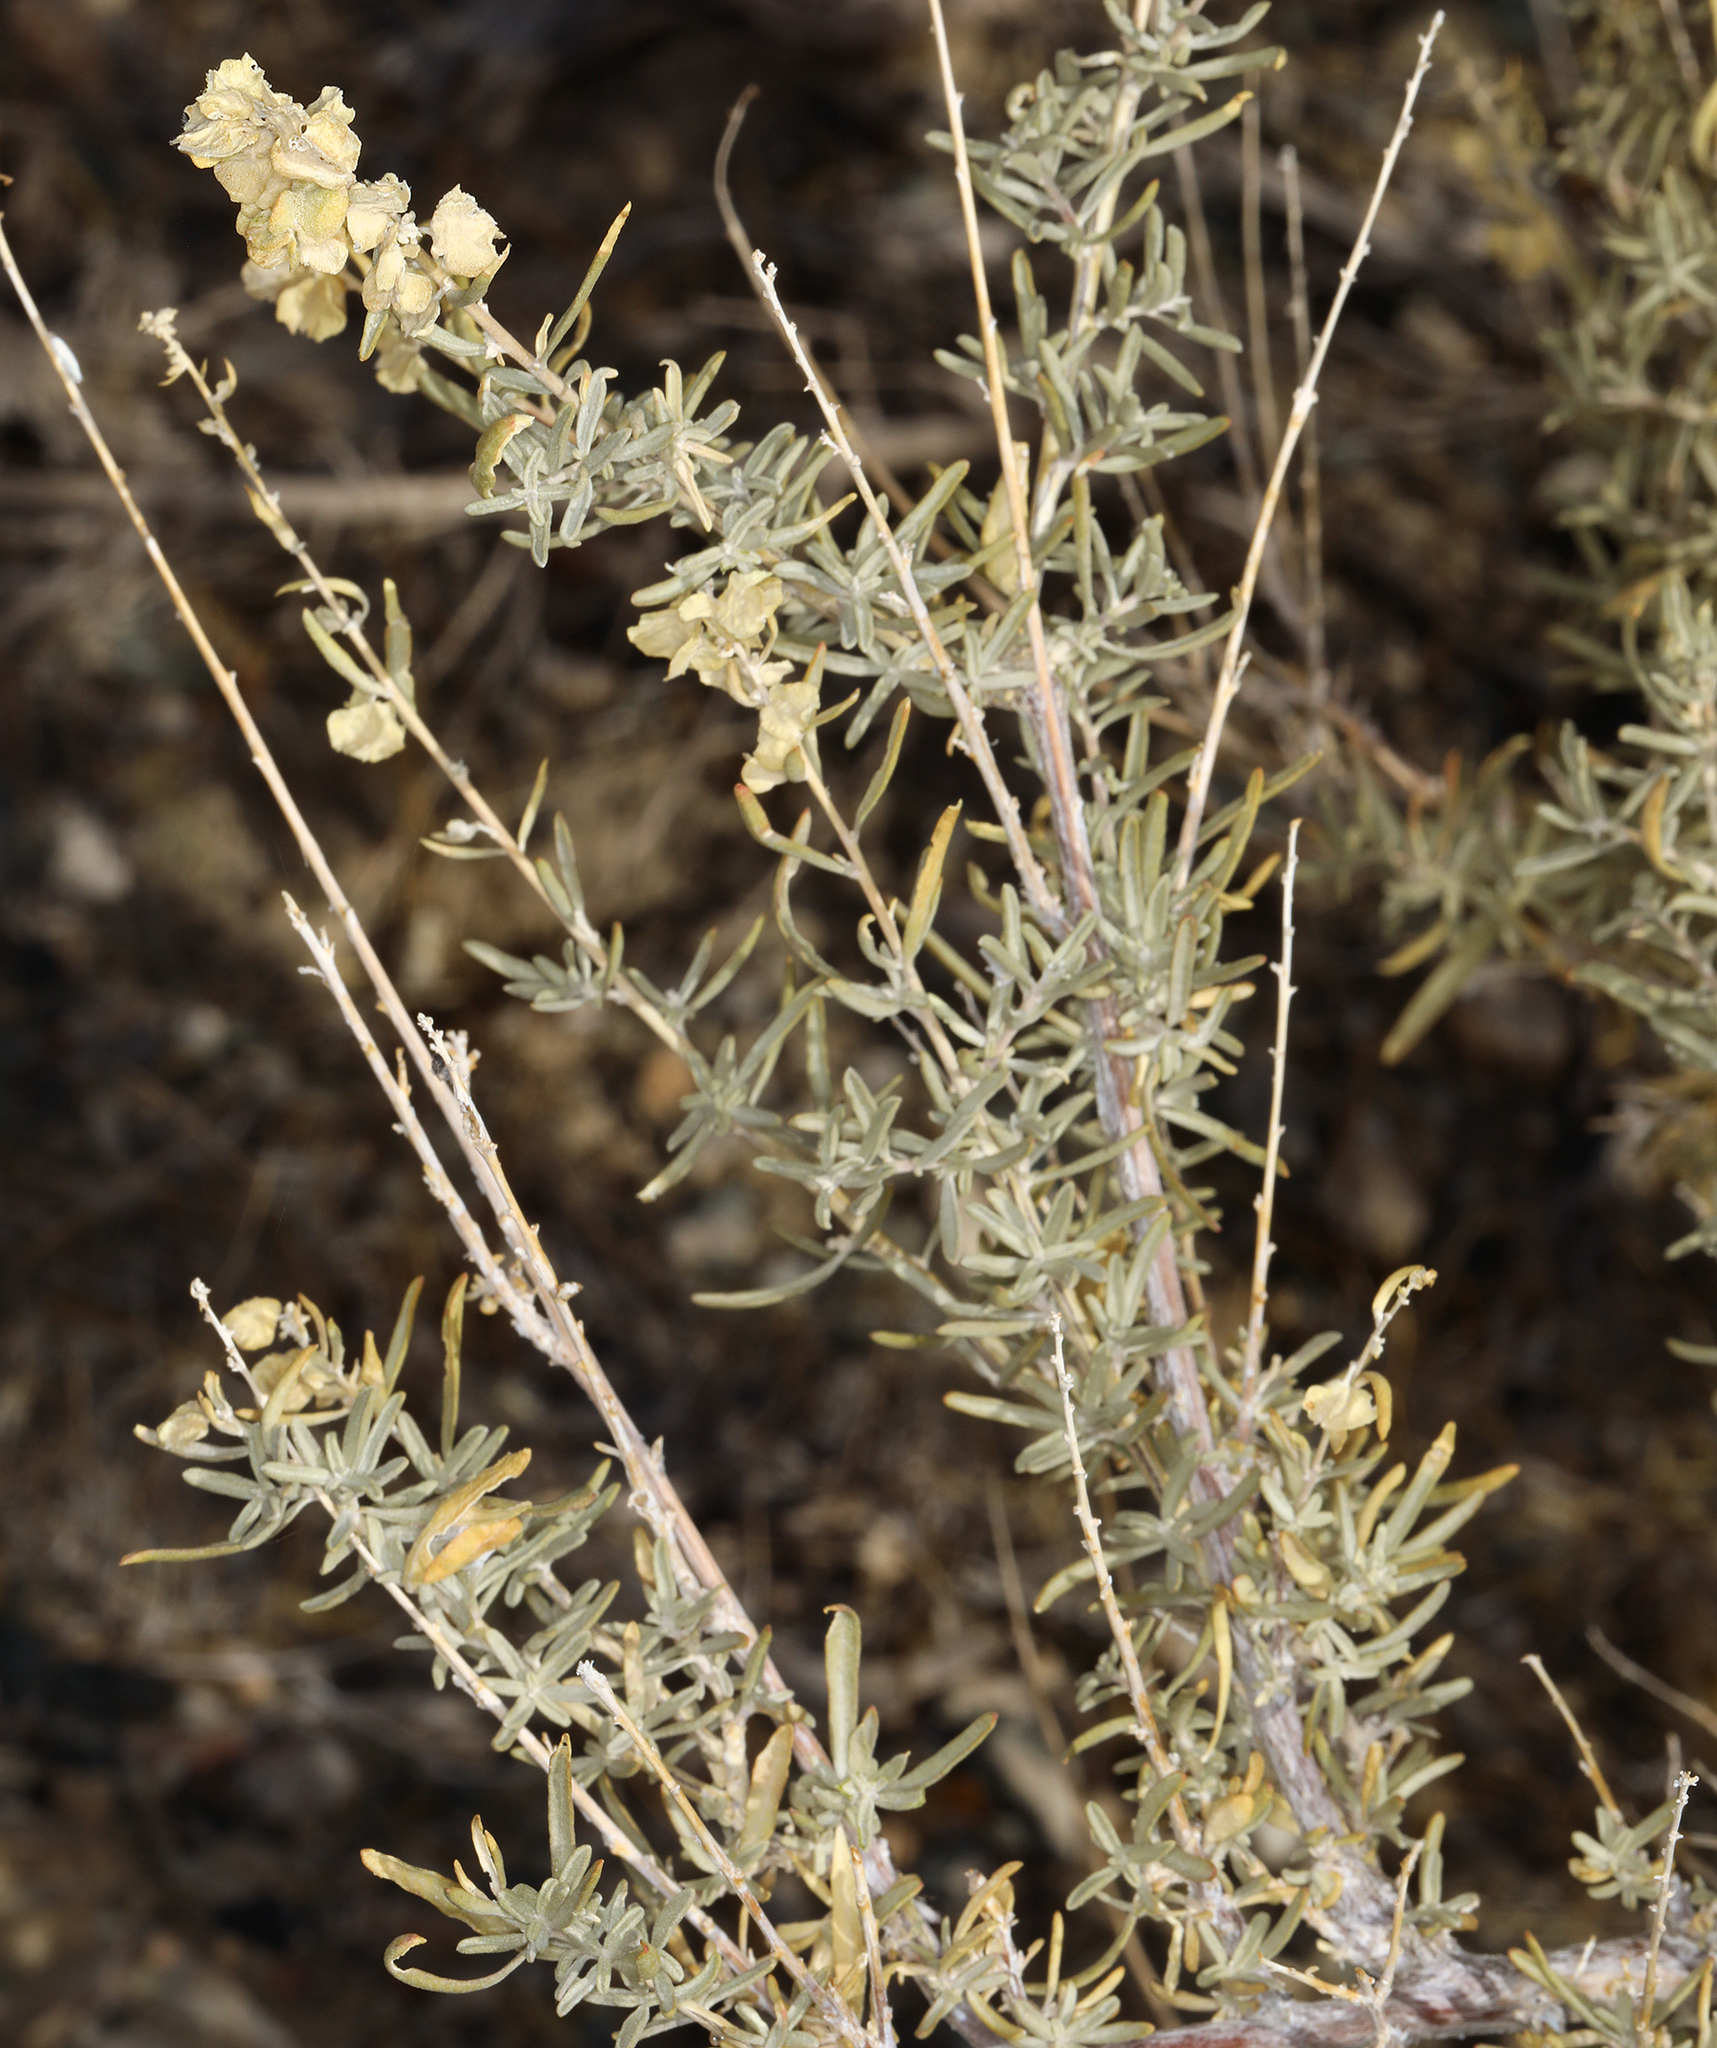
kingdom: Plantae
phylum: Tracheophyta
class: Magnoliopsida
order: Caryophyllales
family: Amaranthaceae
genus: Atriplex
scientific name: Atriplex canescens
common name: Four-wing saltbush
